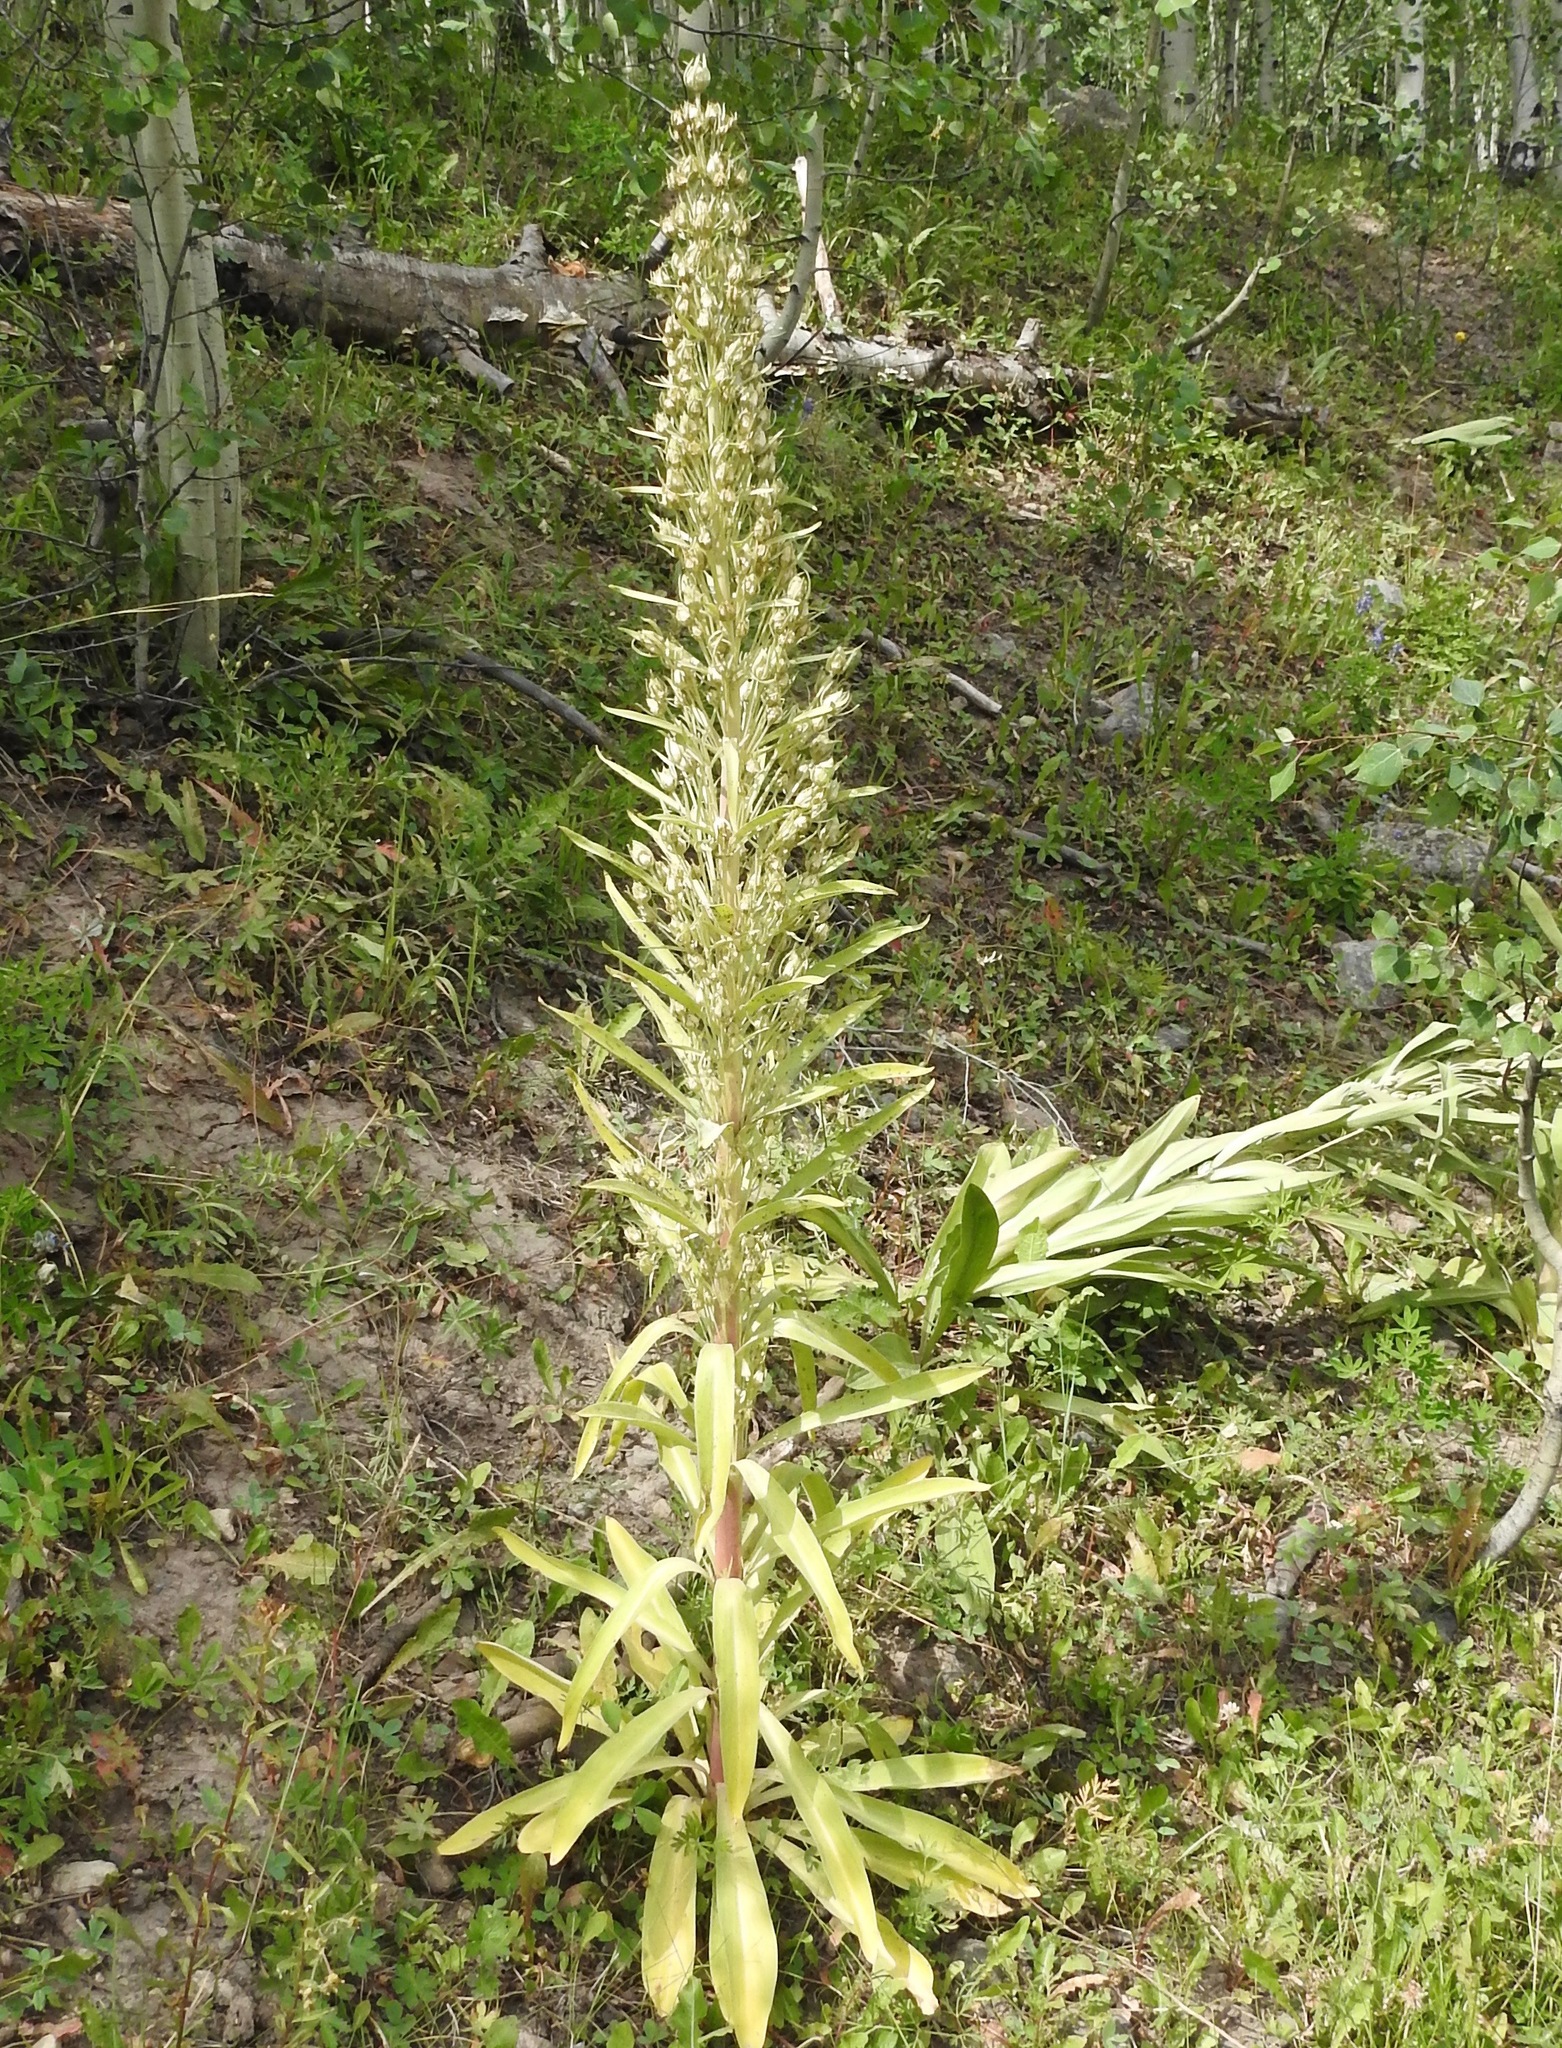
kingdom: Plantae
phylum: Tracheophyta
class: Magnoliopsida
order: Gentianales
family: Gentianaceae
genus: Frasera
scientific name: Frasera speciosa
